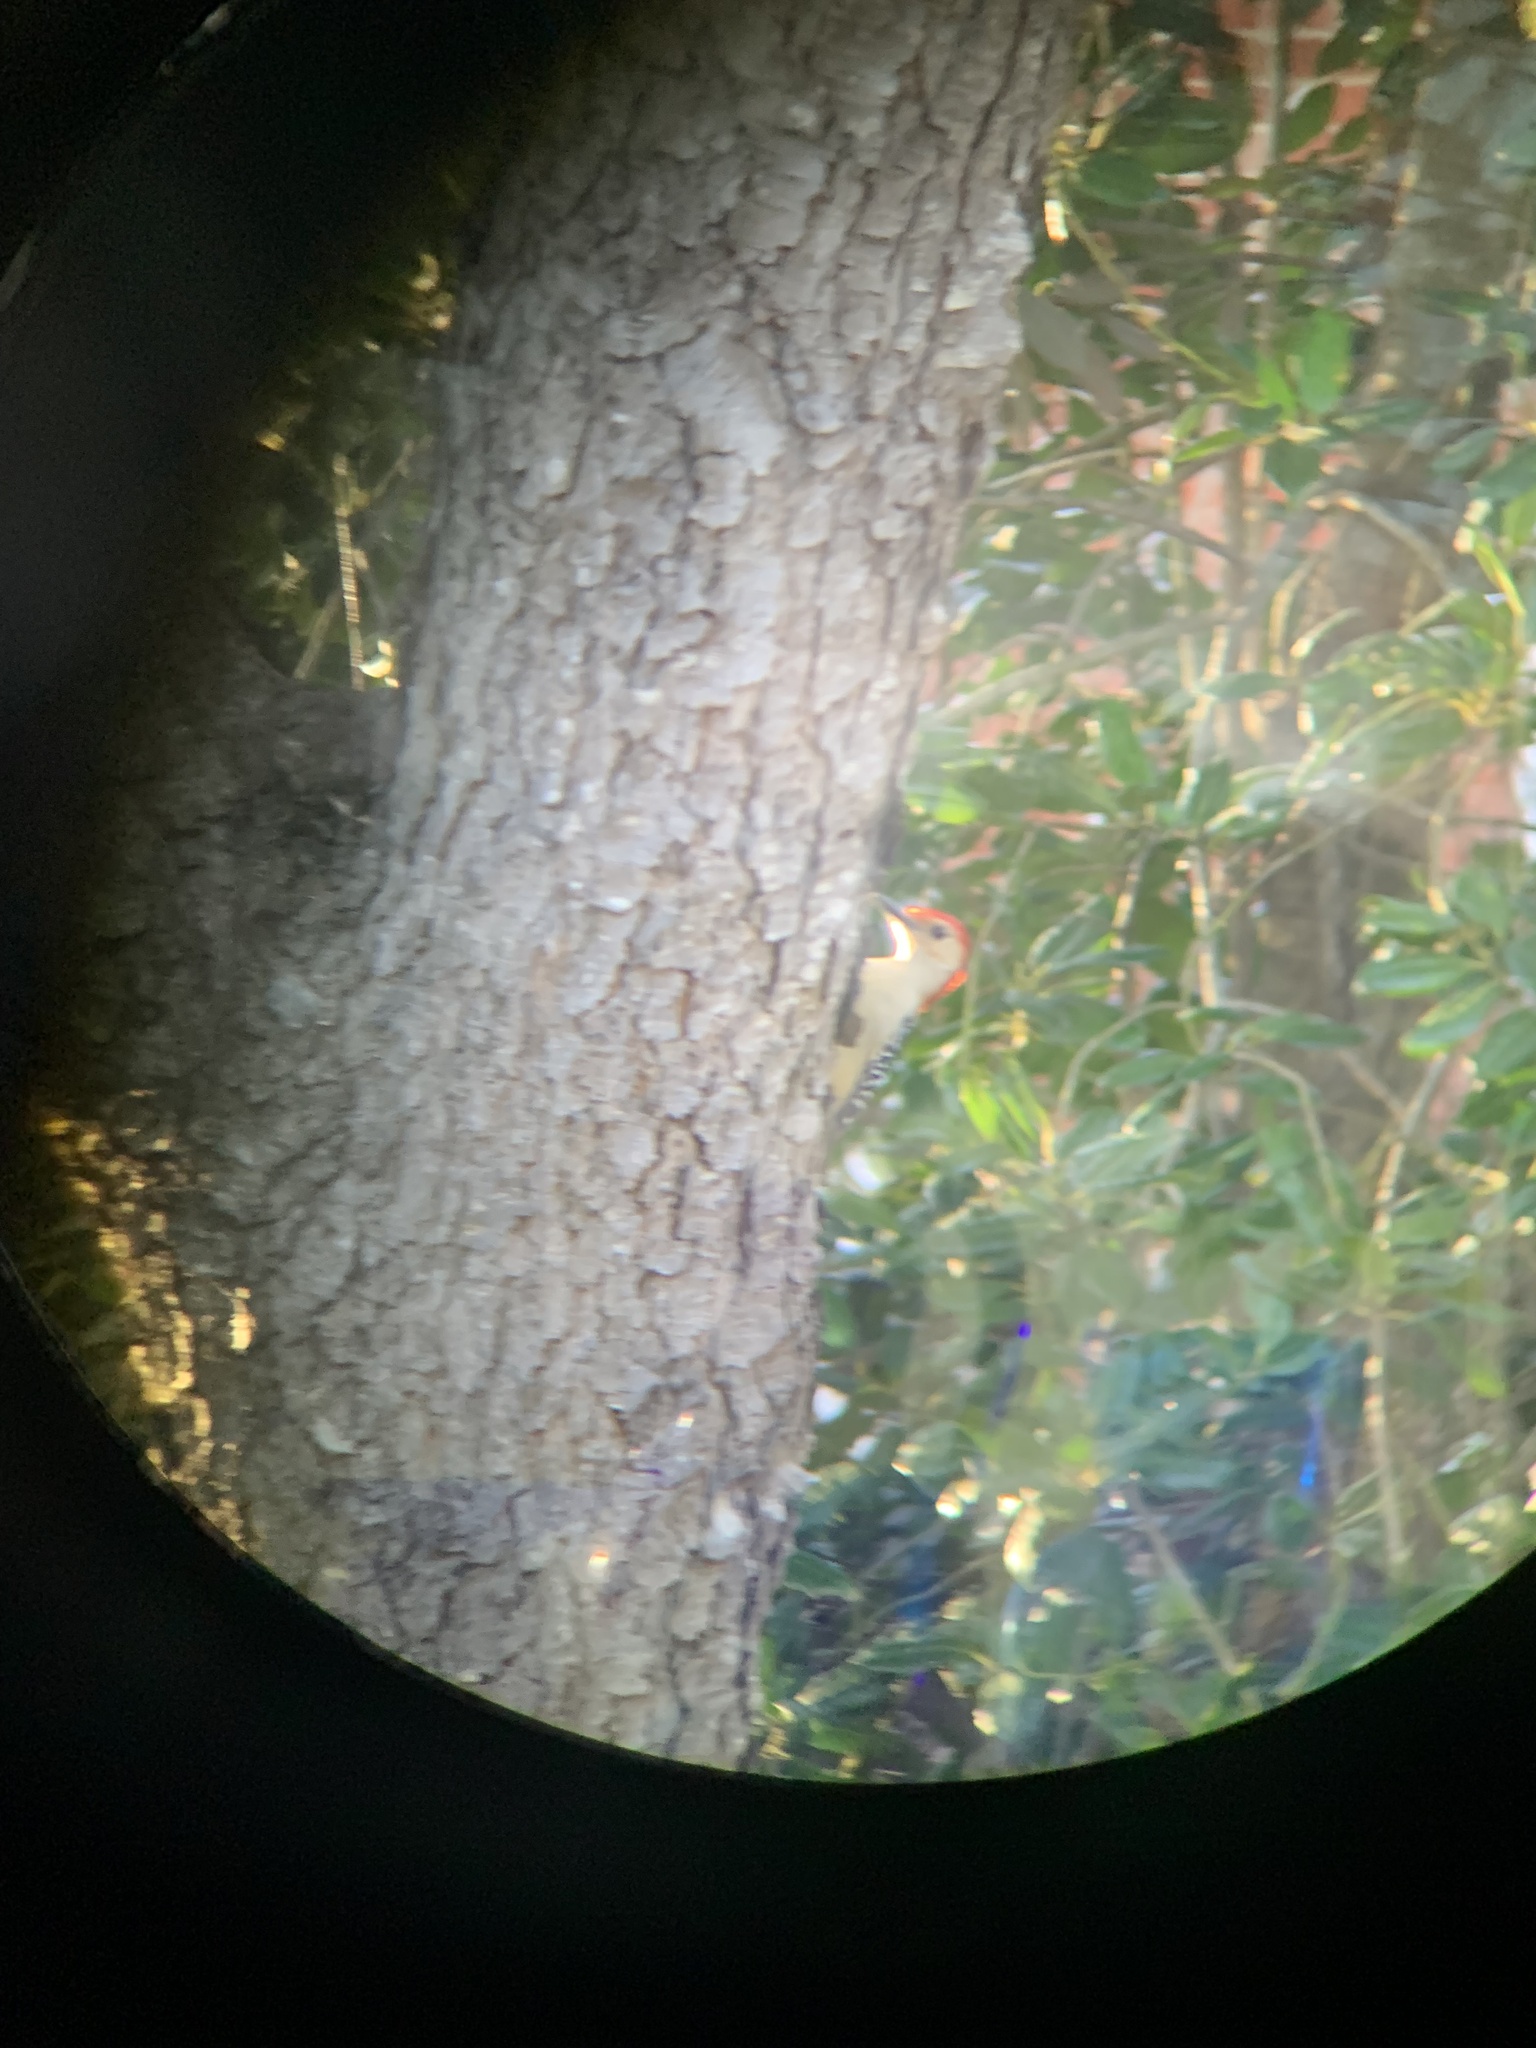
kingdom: Animalia
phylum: Chordata
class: Aves
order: Piciformes
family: Picidae
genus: Melanerpes
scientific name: Melanerpes carolinus
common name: Red-bellied woodpecker
